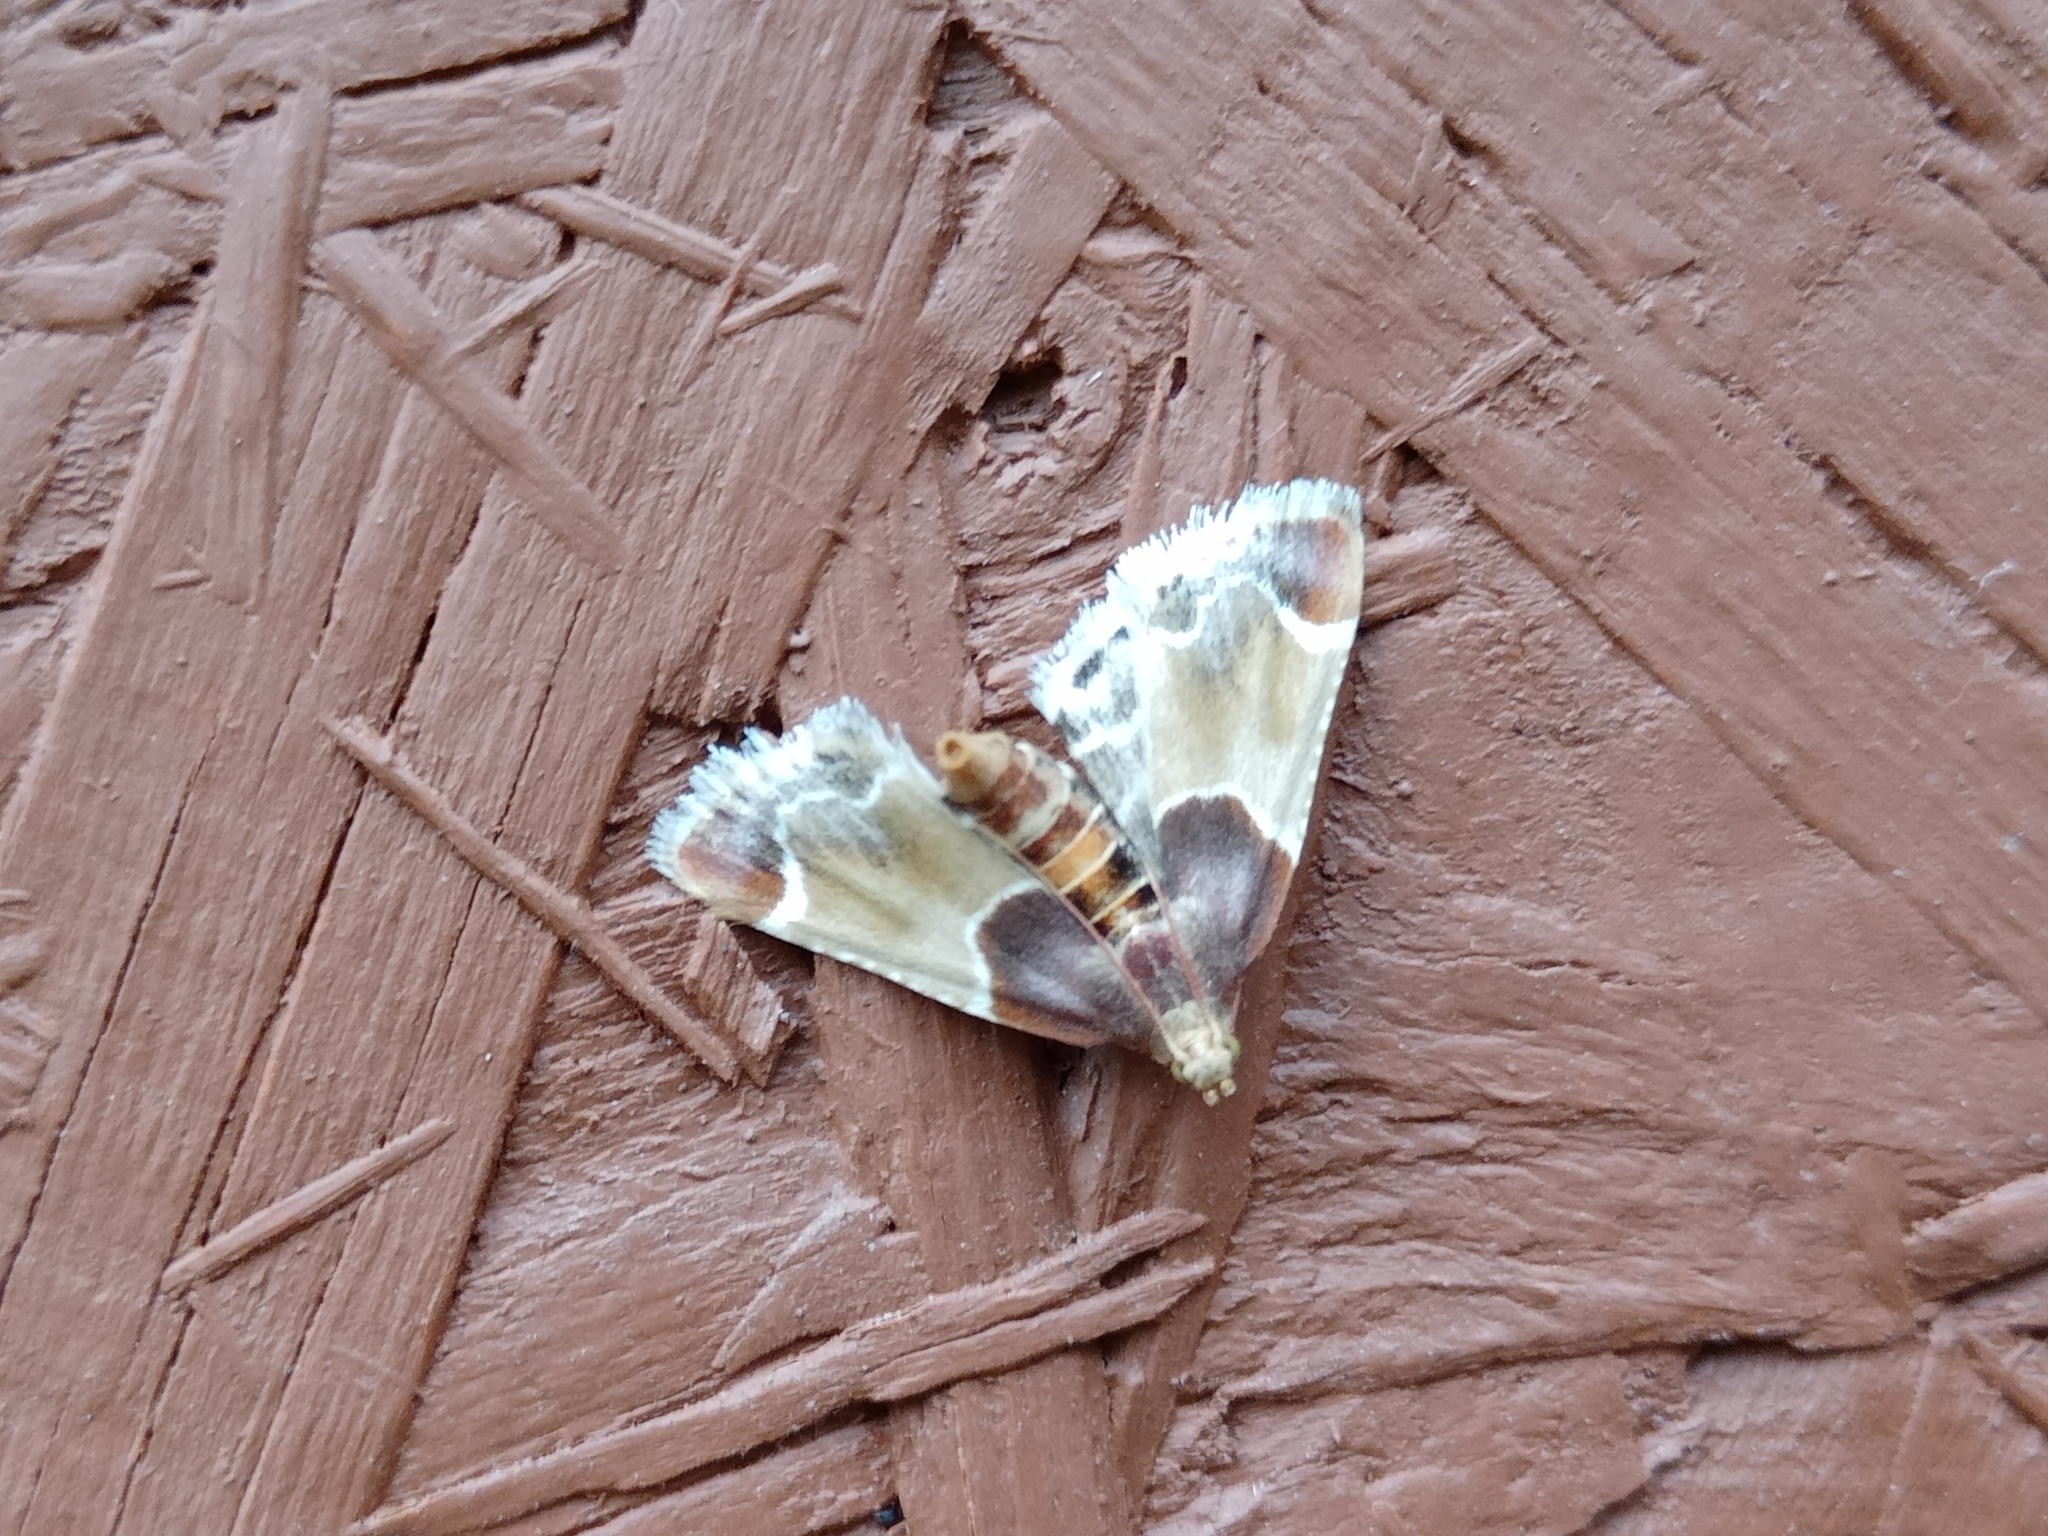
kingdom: Animalia
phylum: Arthropoda
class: Insecta
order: Lepidoptera
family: Pyralidae
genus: Pyralis
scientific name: Pyralis farinalis
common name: Meal moth
